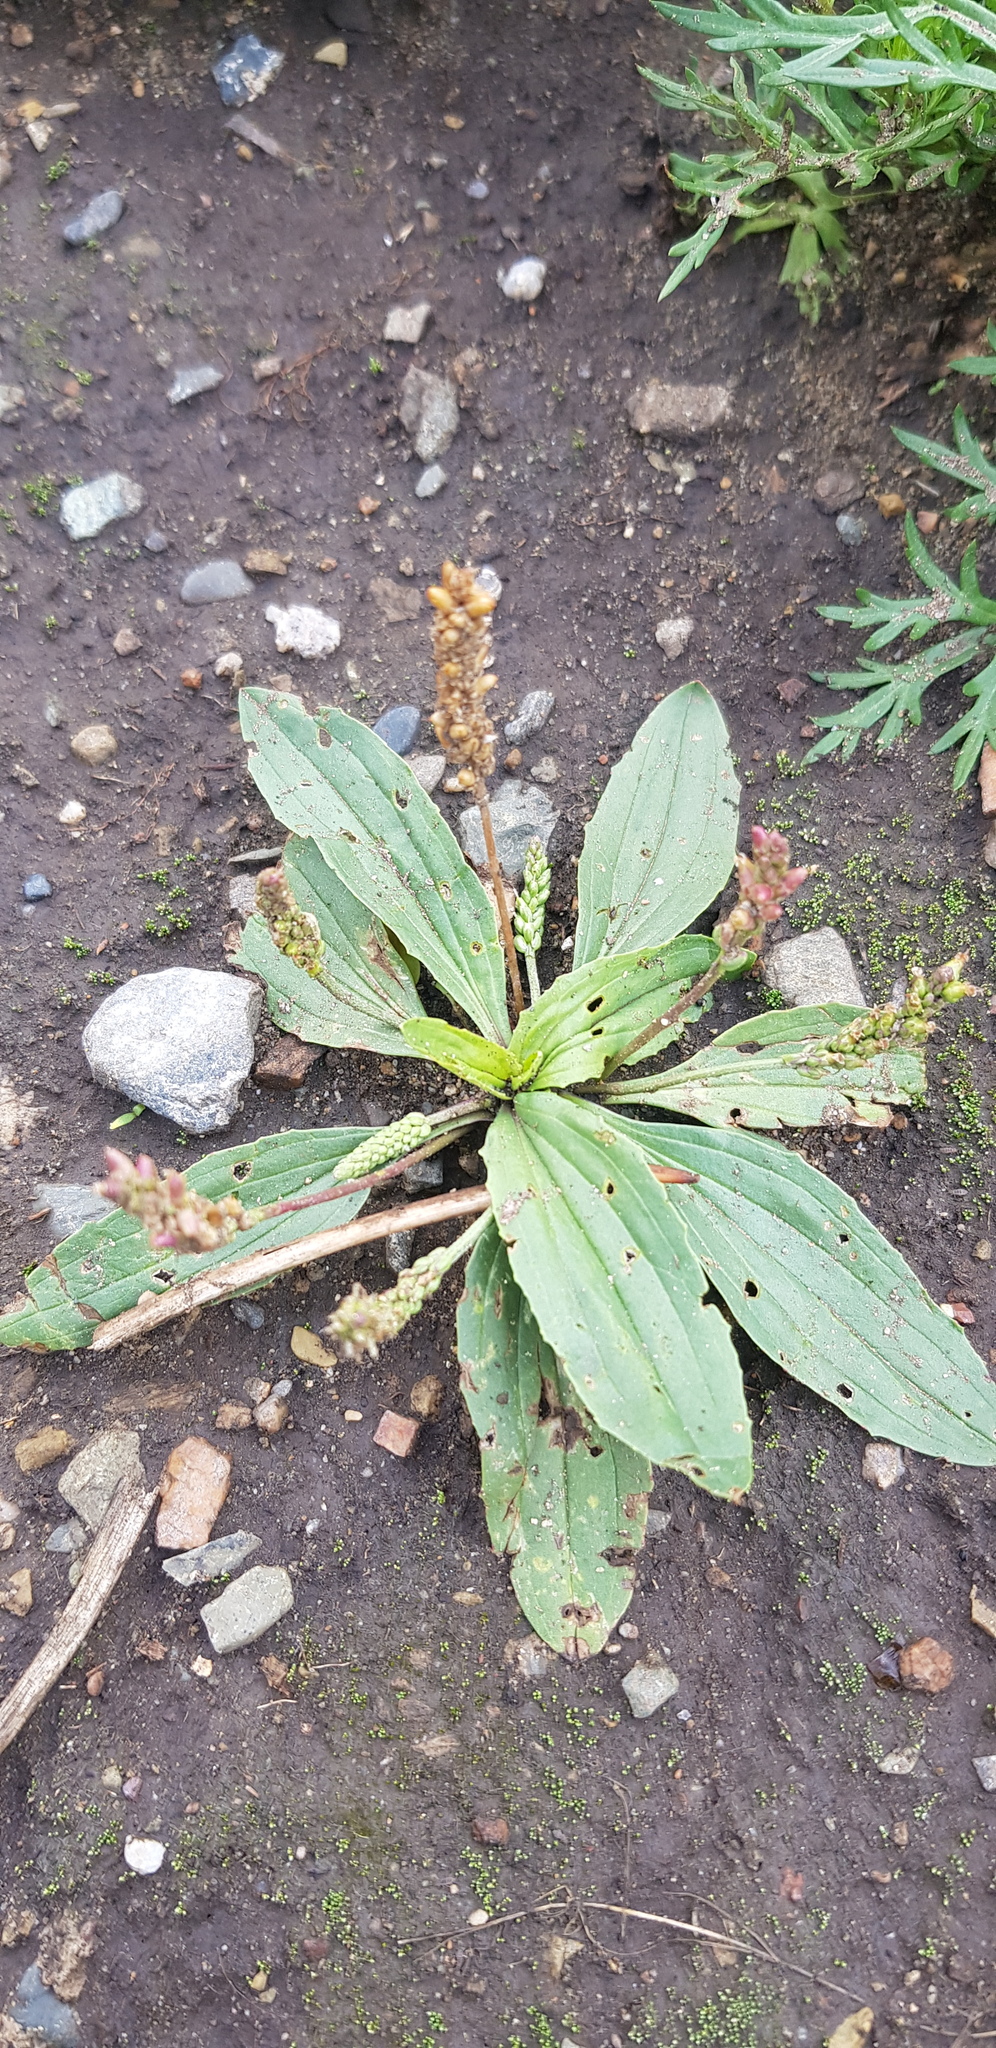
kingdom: Plantae
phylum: Tracheophyta
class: Magnoliopsida
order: Lamiales
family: Plantaginaceae
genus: Plantago
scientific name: Plantago depressa
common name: Depressed plantain
